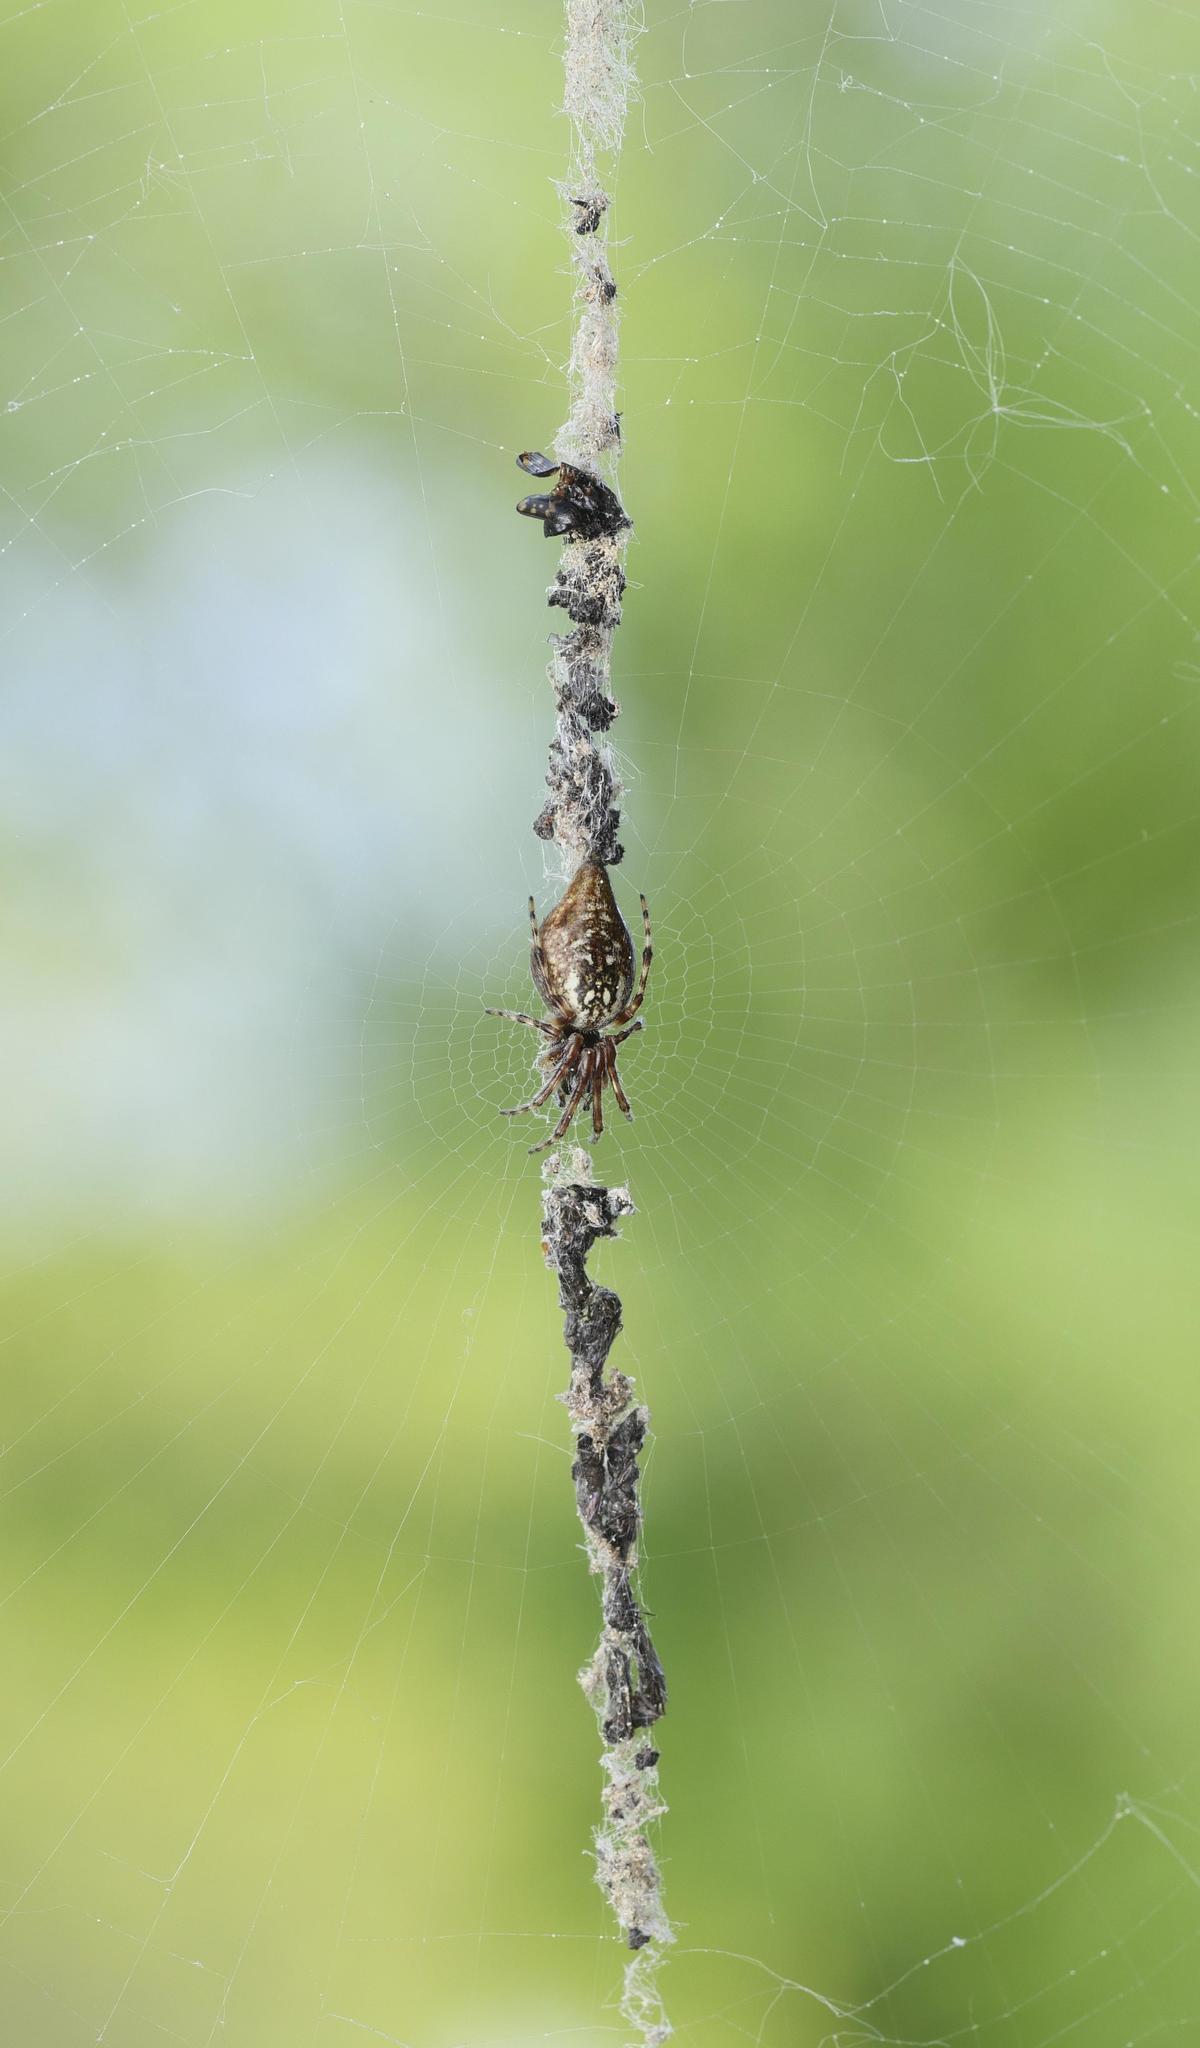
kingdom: Animalia
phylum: Arthropoda
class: Arachnida
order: Araneae
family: Araneidae
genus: Cyclosa
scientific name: Cyclosa conica
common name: Conical trashline orbweaver
